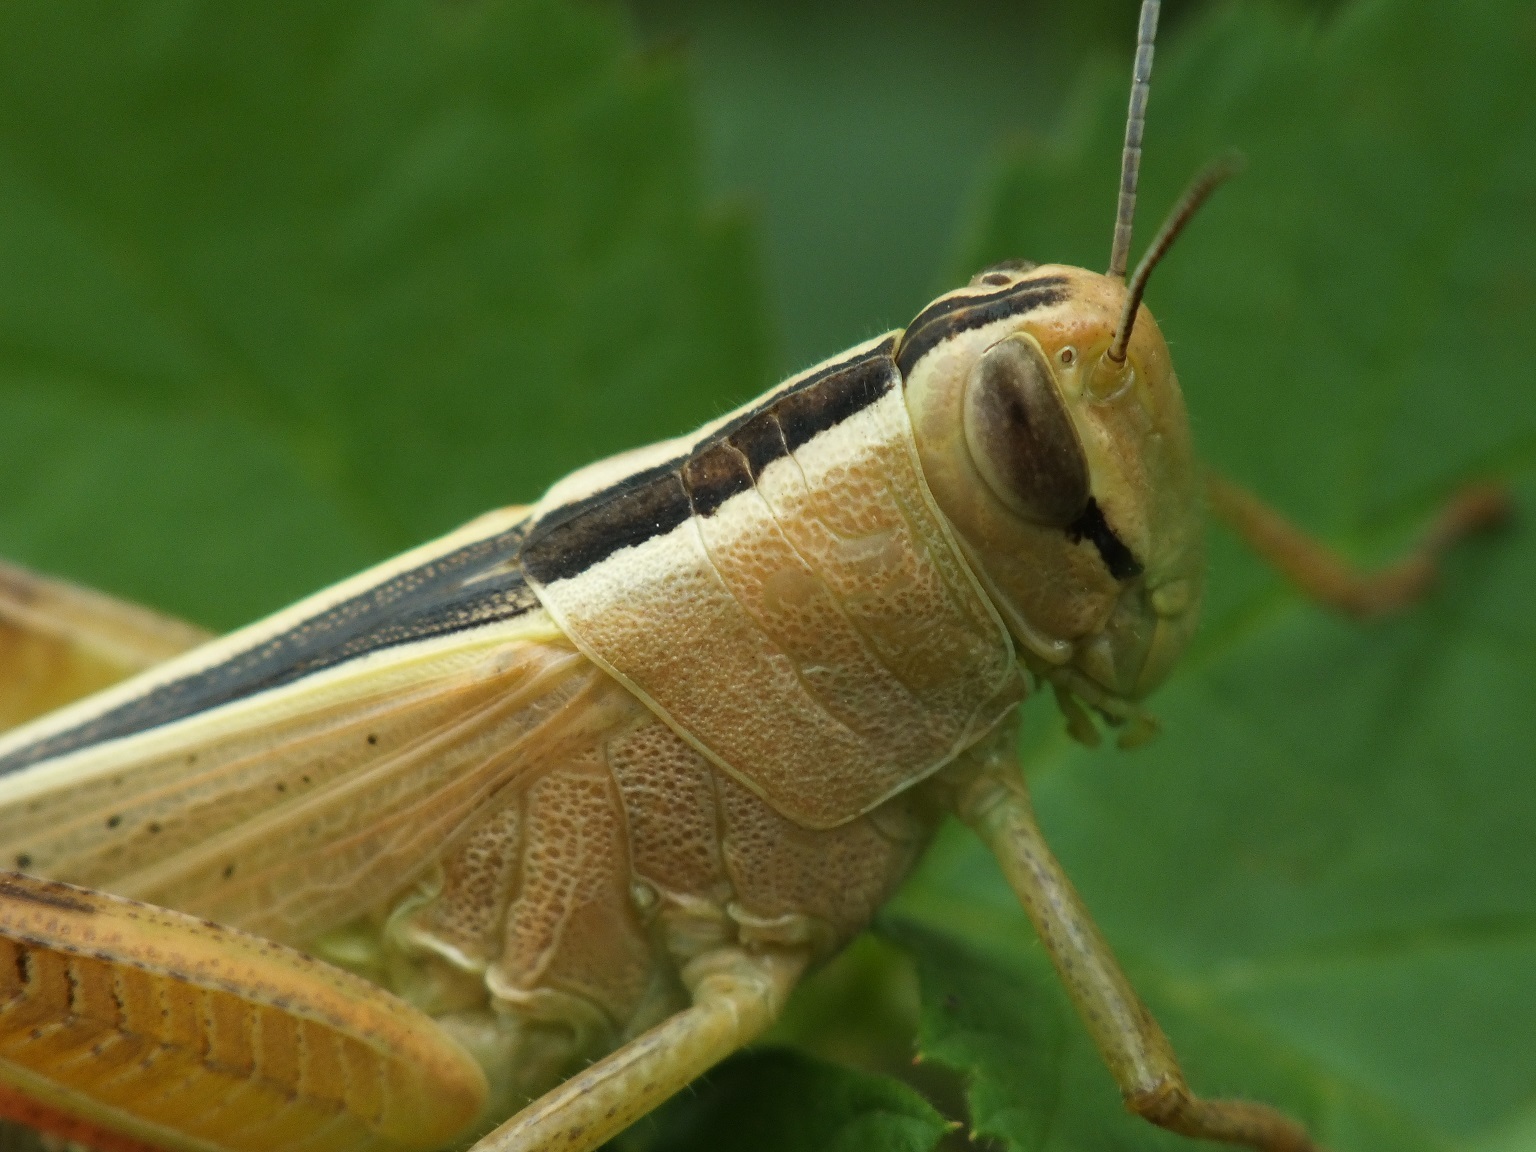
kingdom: Animalia
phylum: Arthropoda
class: Insecta
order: Orthoptera
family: Acrididae
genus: Heteracris
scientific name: Heteracris pterosticha
